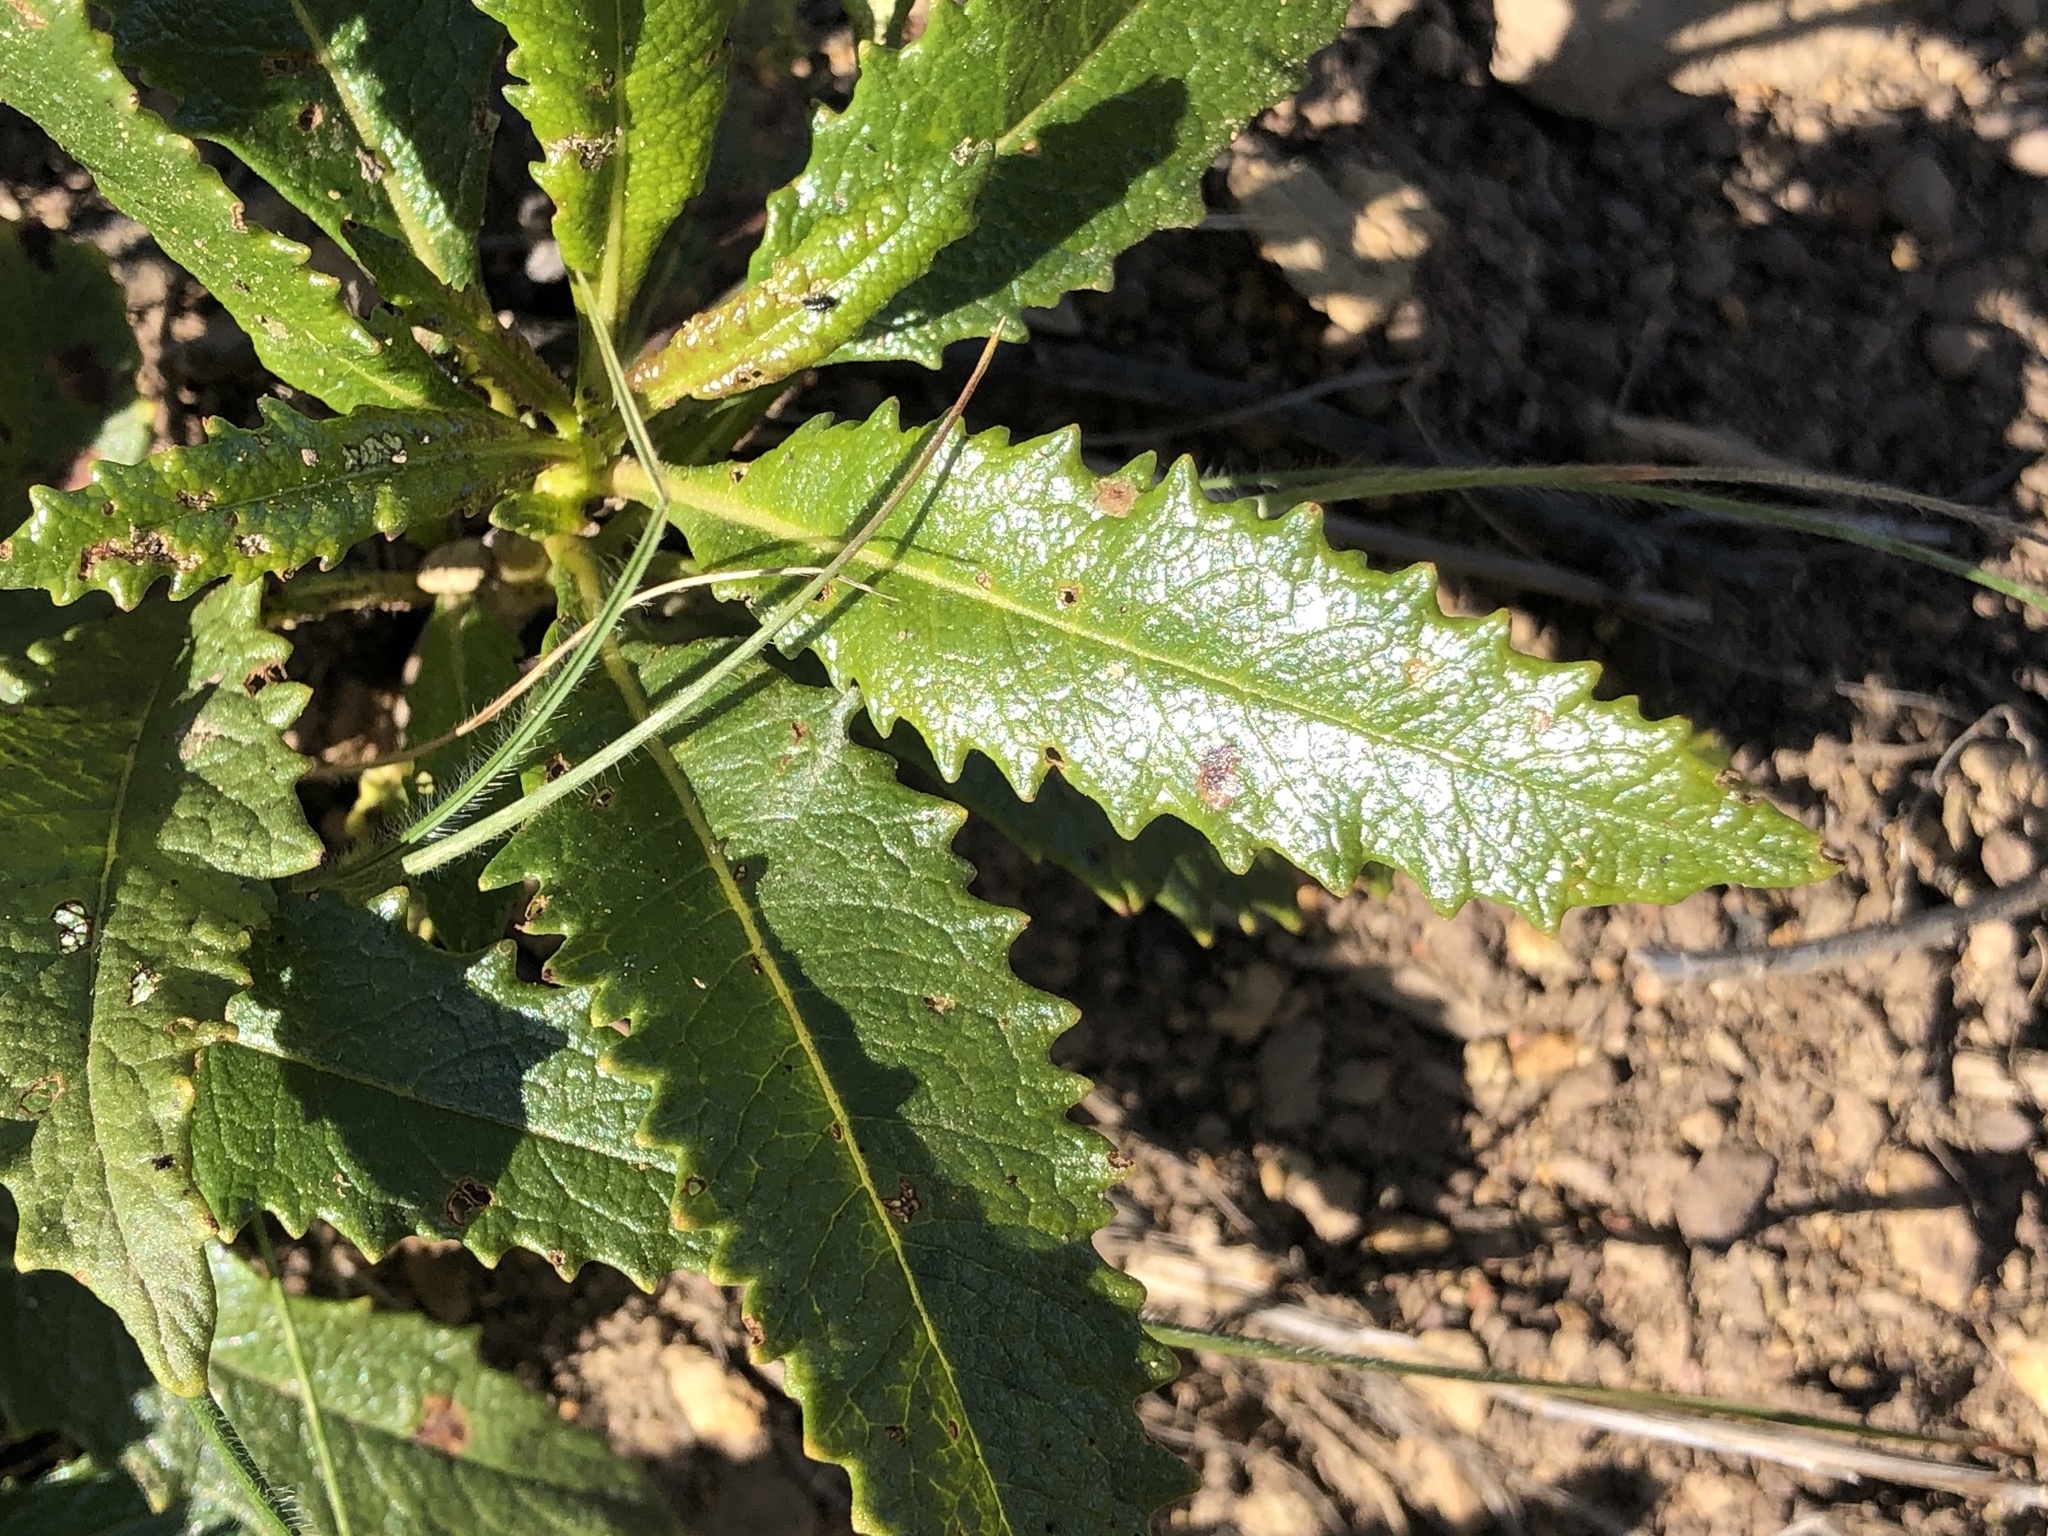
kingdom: Plantae
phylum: Tracheophyta
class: Magnoliopsida
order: Boraginales
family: Namaceae
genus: Eriodictyon
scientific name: Eriodictyon californicum
